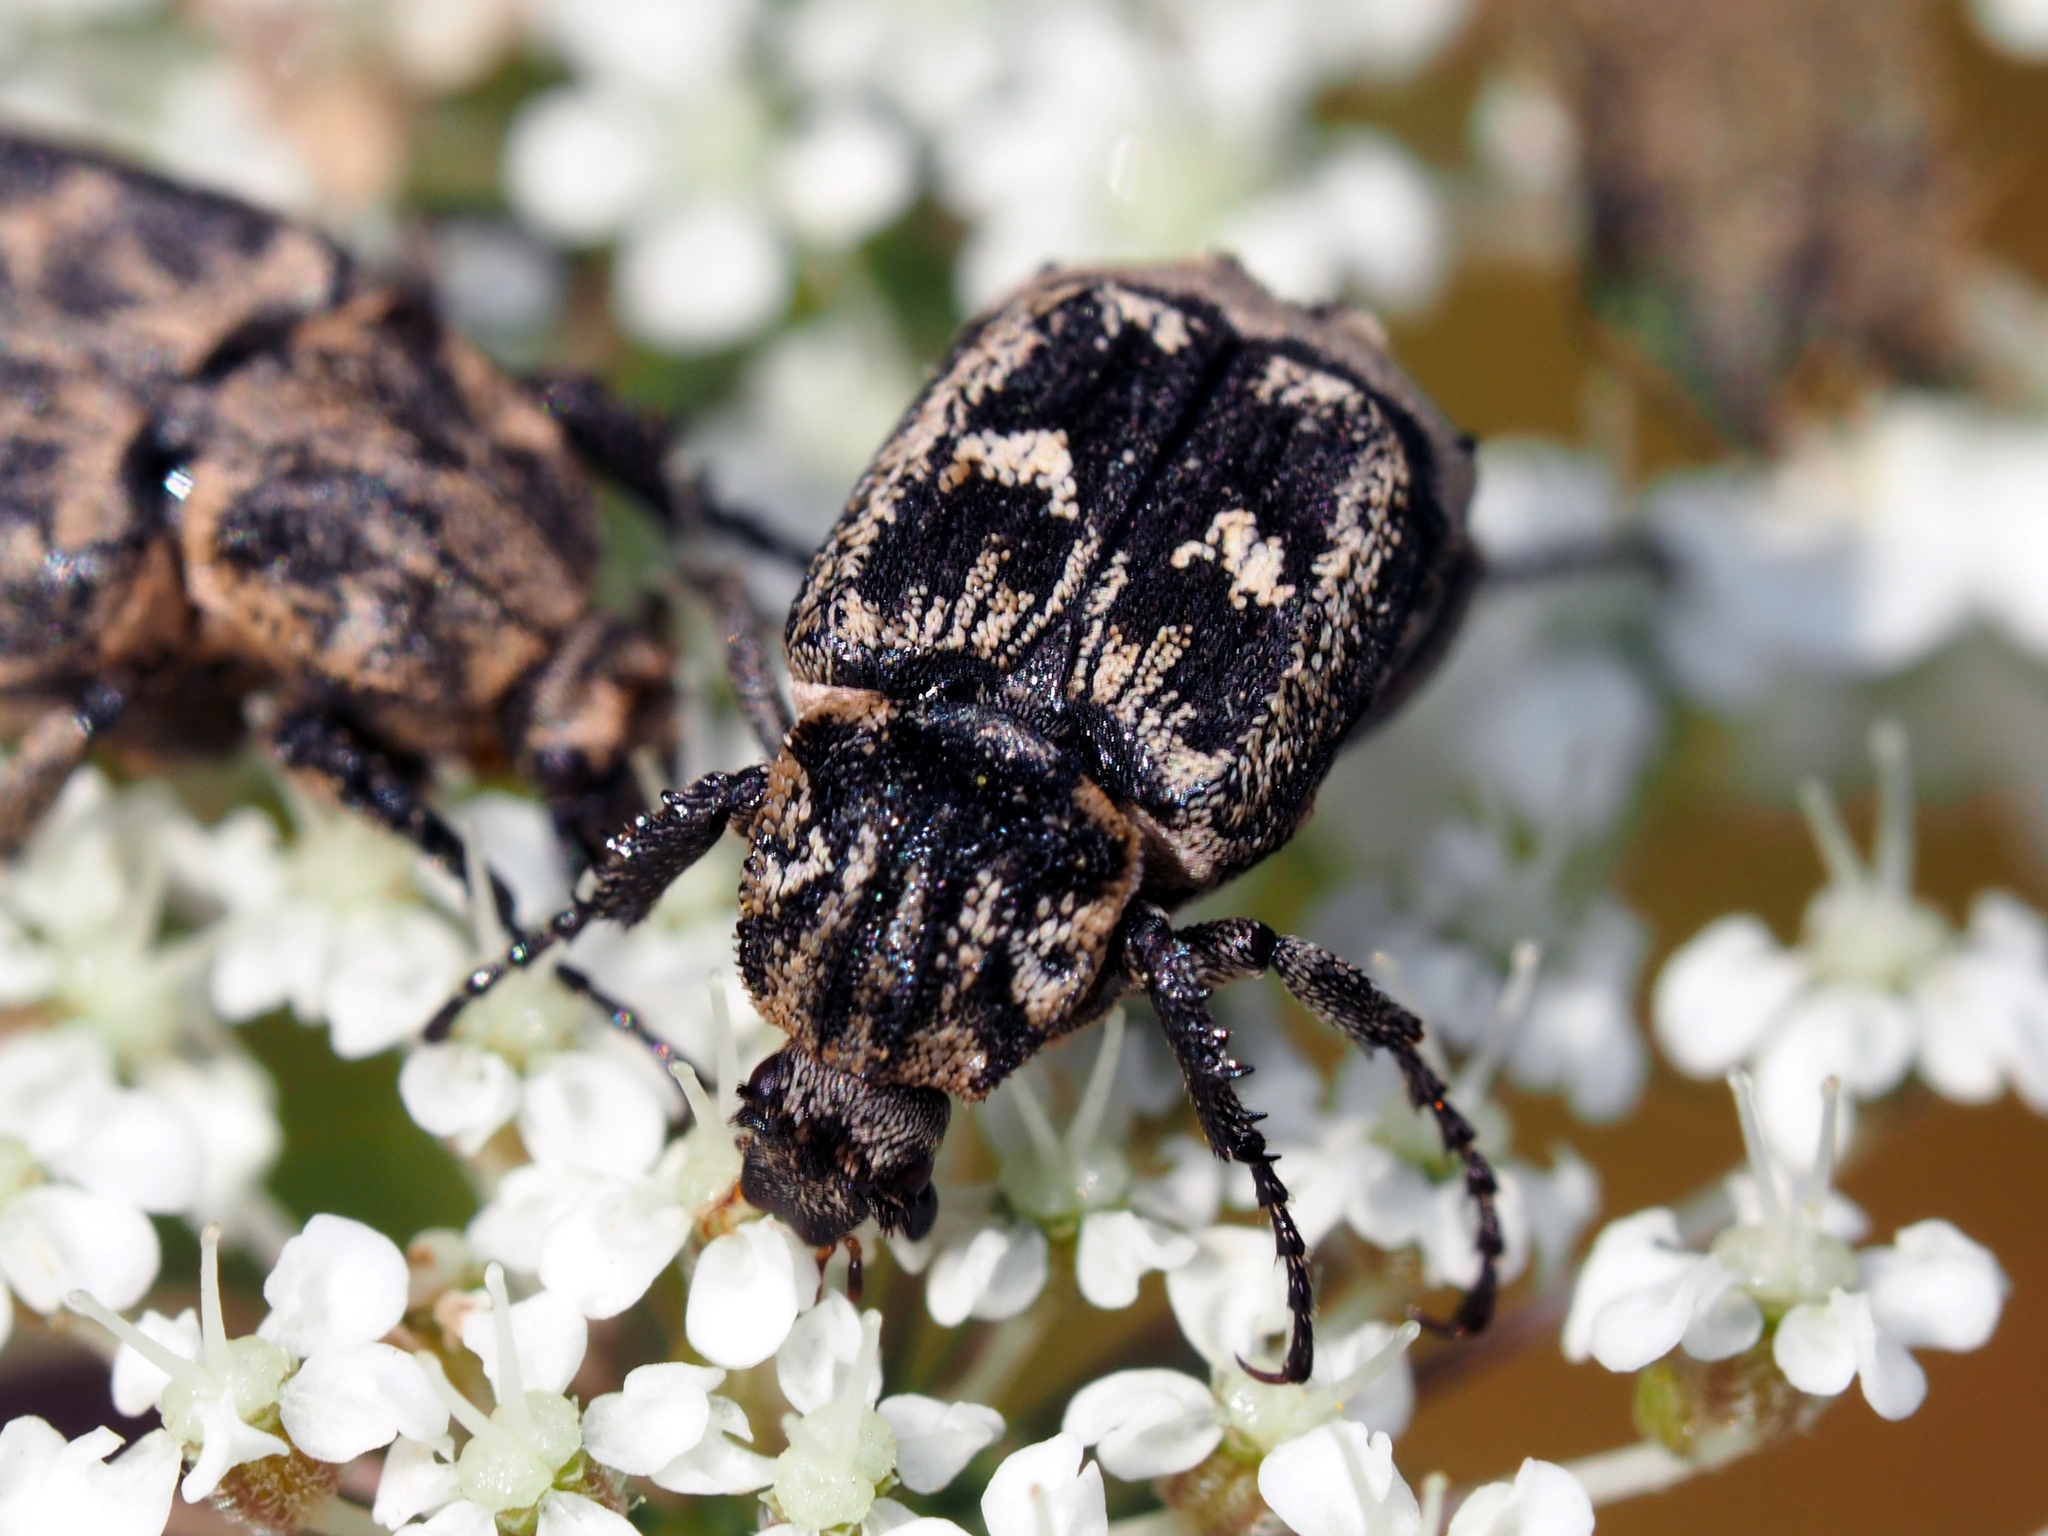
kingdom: Animalia
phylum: Arthropoda
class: Insecta
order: Coleoptera
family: Scarabaeidae
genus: Valgus
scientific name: Valgus hemipterus
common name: Bug flower chafer
